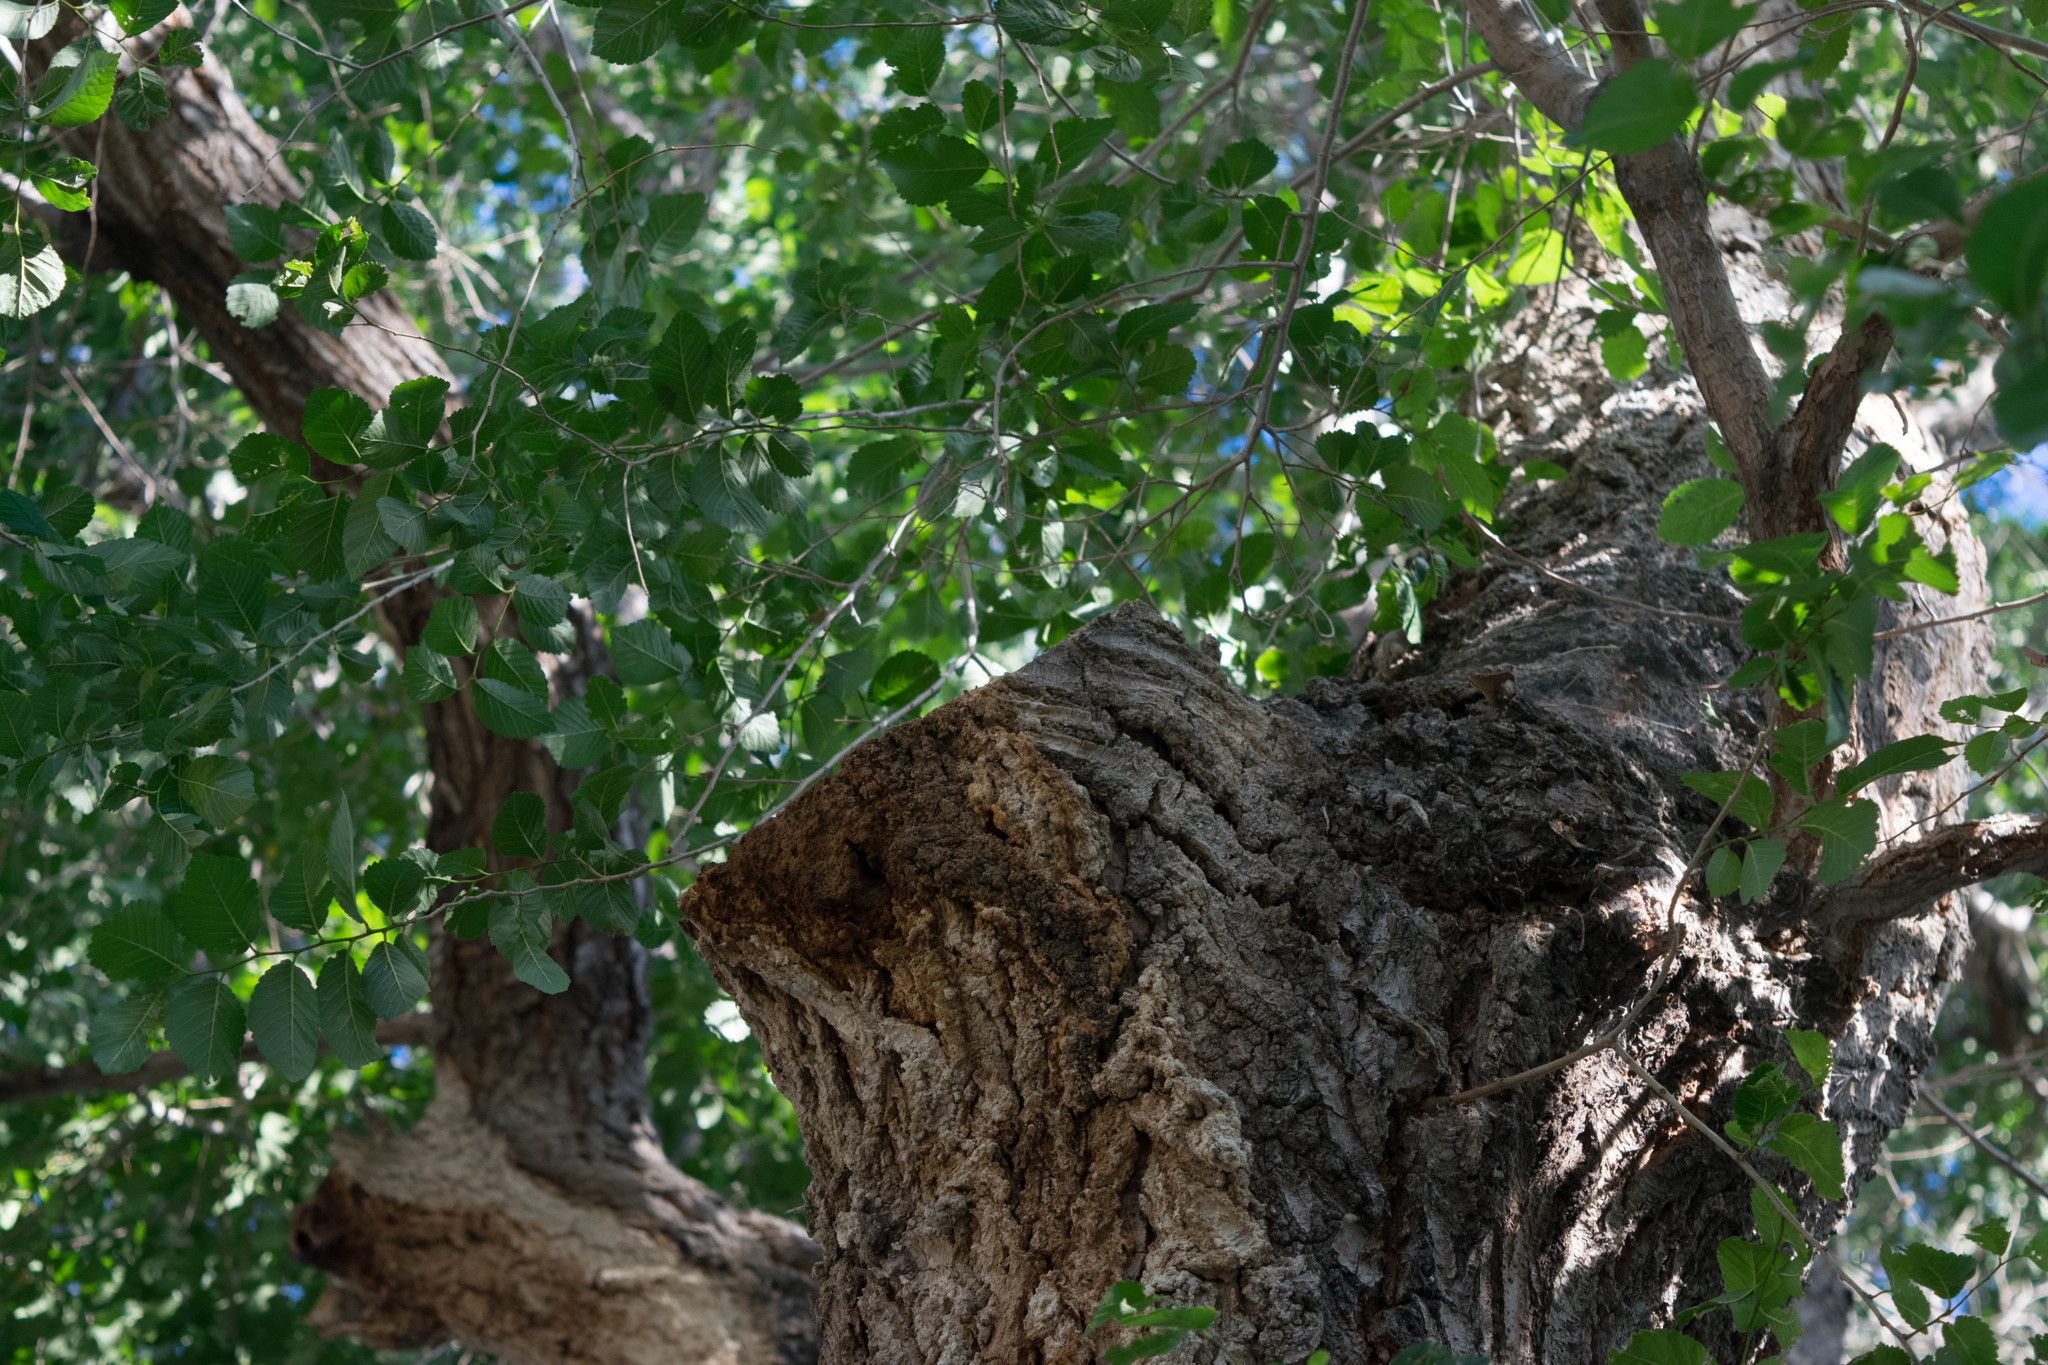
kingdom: Plantae
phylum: Tracheophyta
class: Magnoliopsida
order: Rosales
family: Ulmaceae
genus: Ulmus
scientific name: Ulmus pumila
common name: Siberian elm
